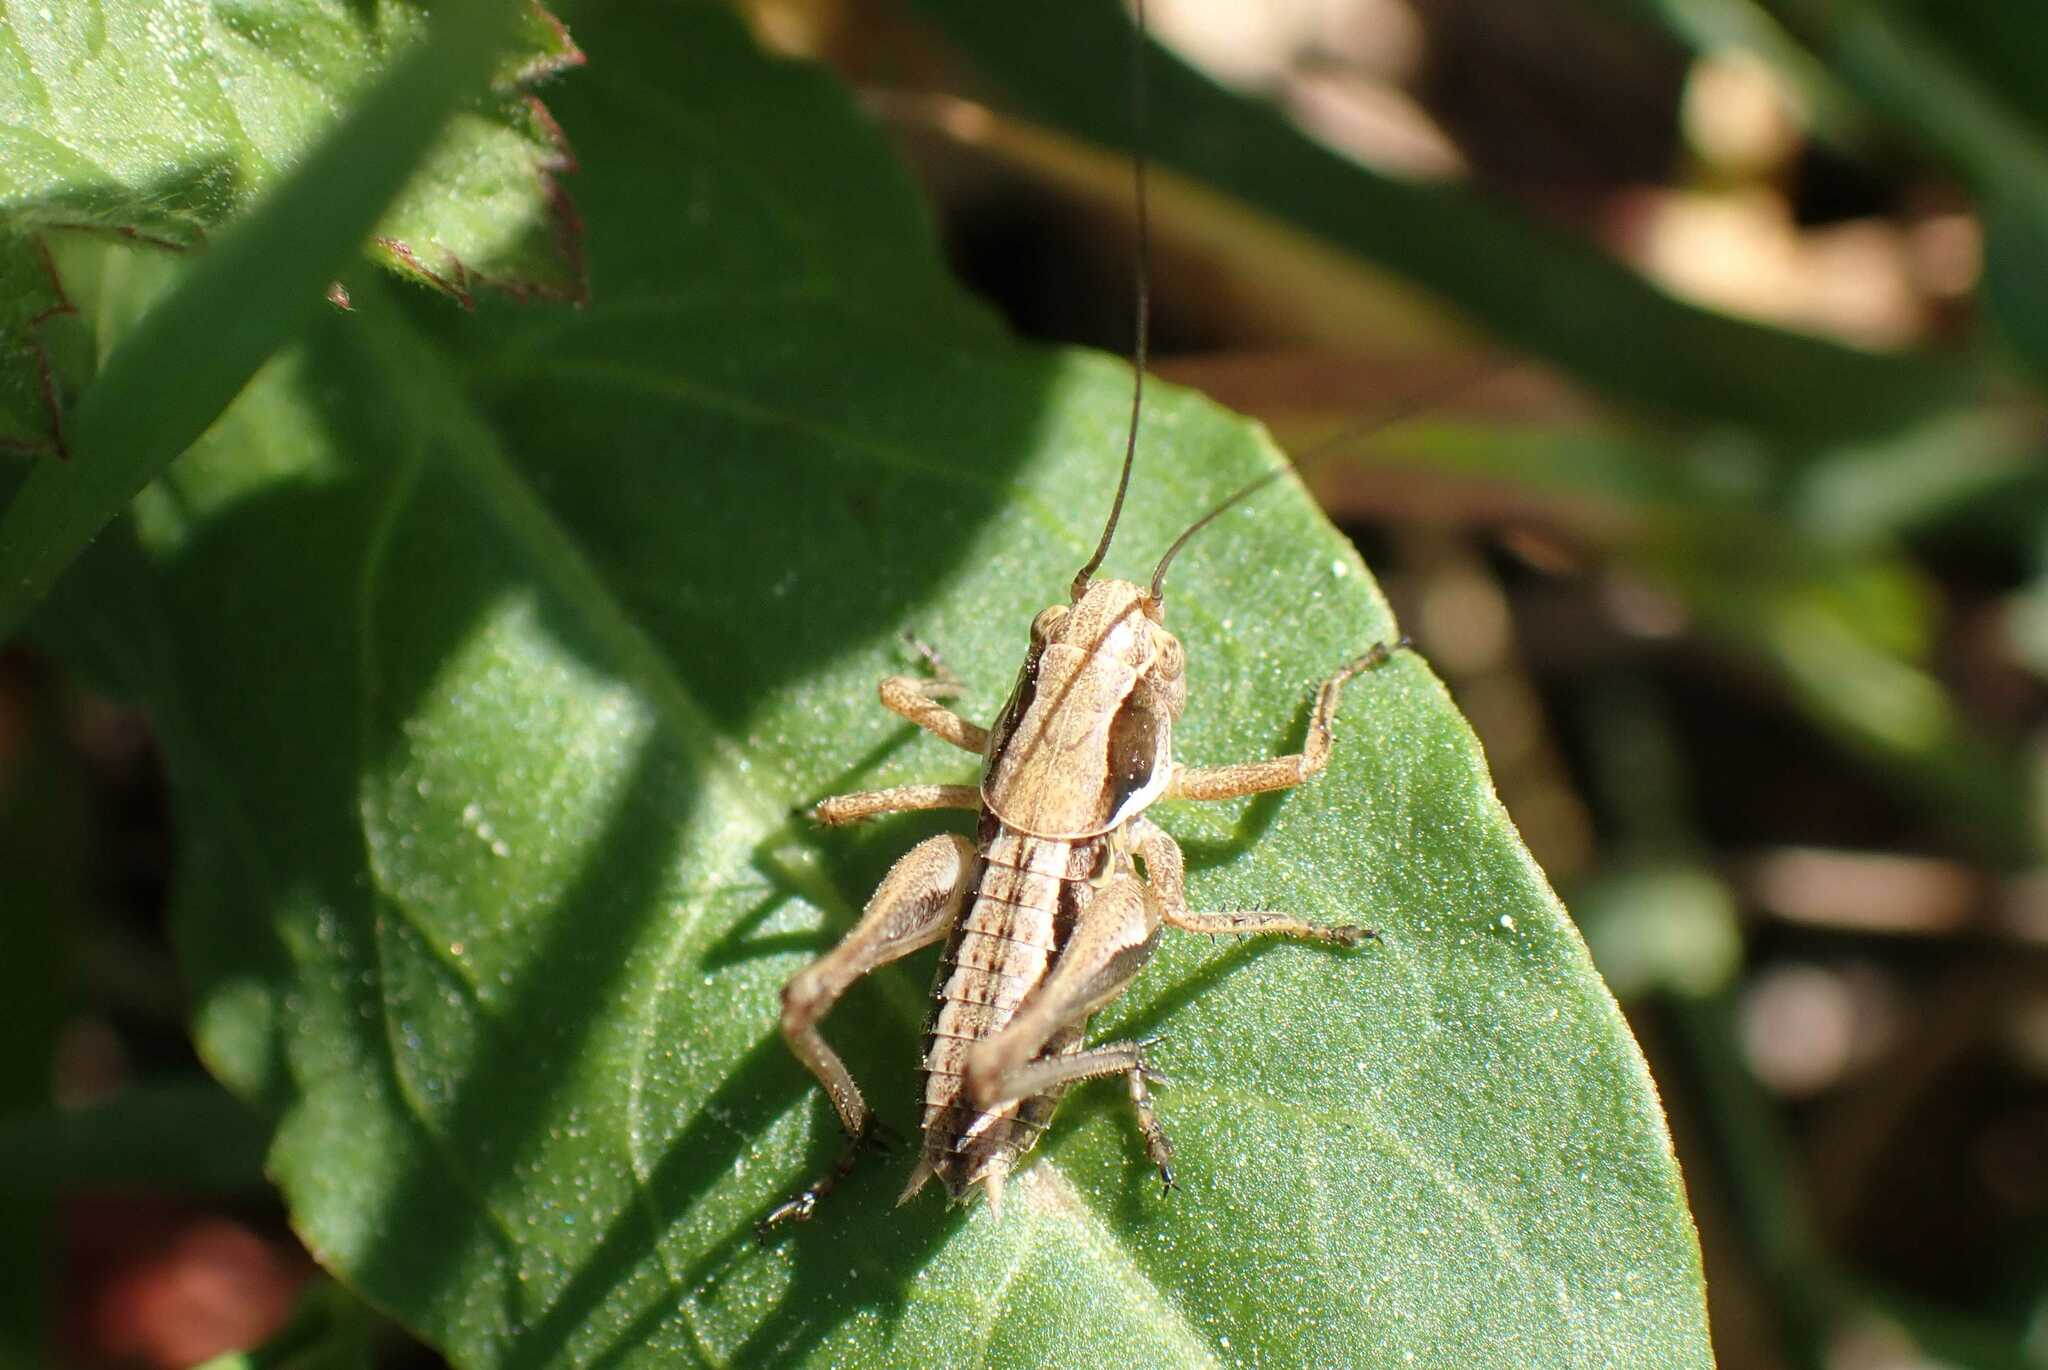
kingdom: Animalia
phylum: Arthropoda
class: Insecta
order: Orthoptera
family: Tettigoniidae
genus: Platycleis
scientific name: Platycleis albopunctata
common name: Grey bush-cricket
